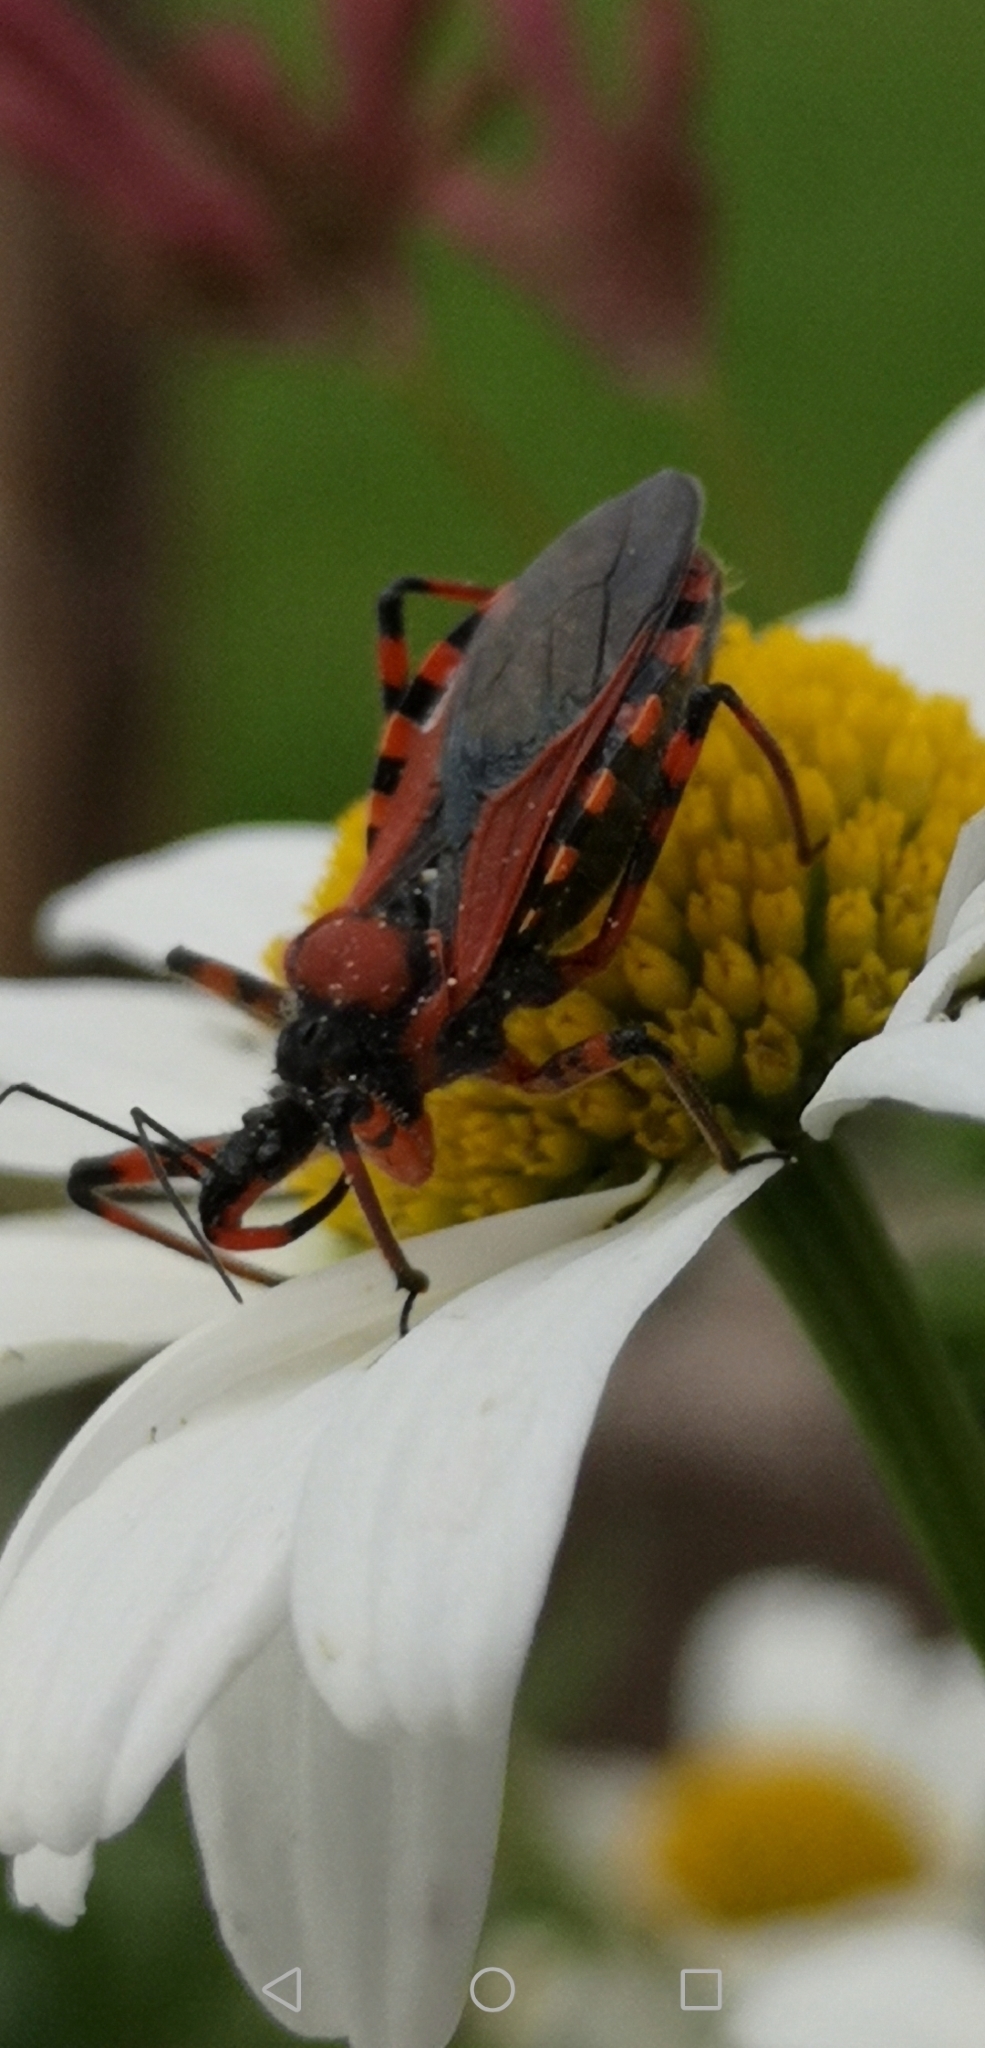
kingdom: Animalia
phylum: Arthropoda
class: Insecta
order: Hemiptera
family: Reduviidae
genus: Rhynocoris
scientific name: Rhynocoris iracundus
